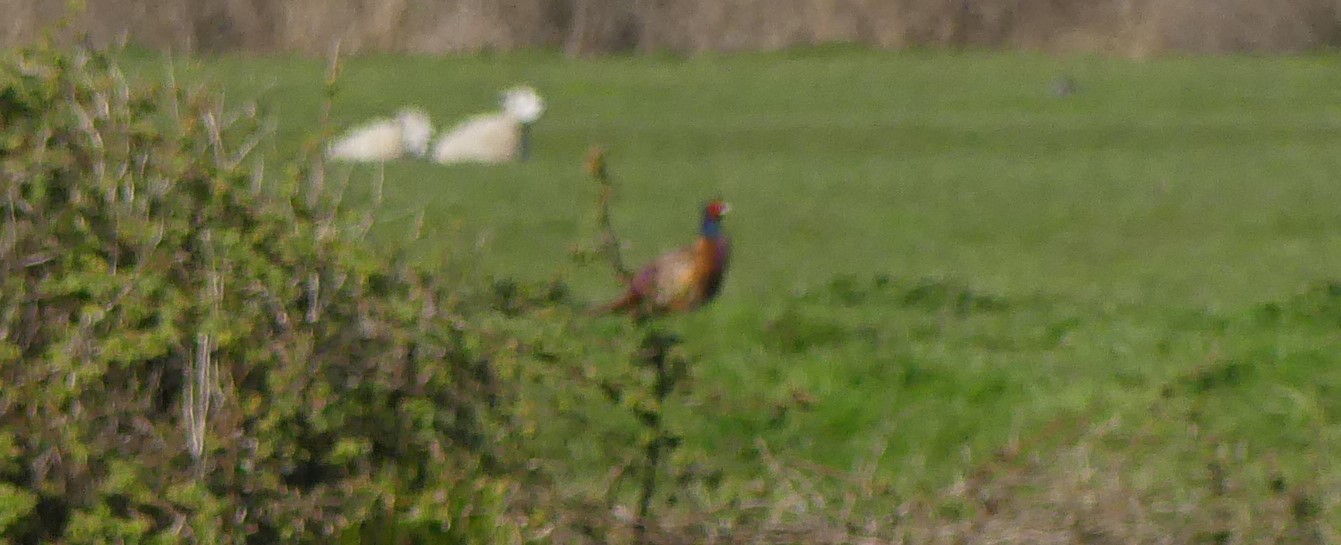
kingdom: Animalia
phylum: Chordata
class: Aves
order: Galliformes
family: Phasianidae
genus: Phasianus
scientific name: Phasianus colchicus
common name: Common pheasant
